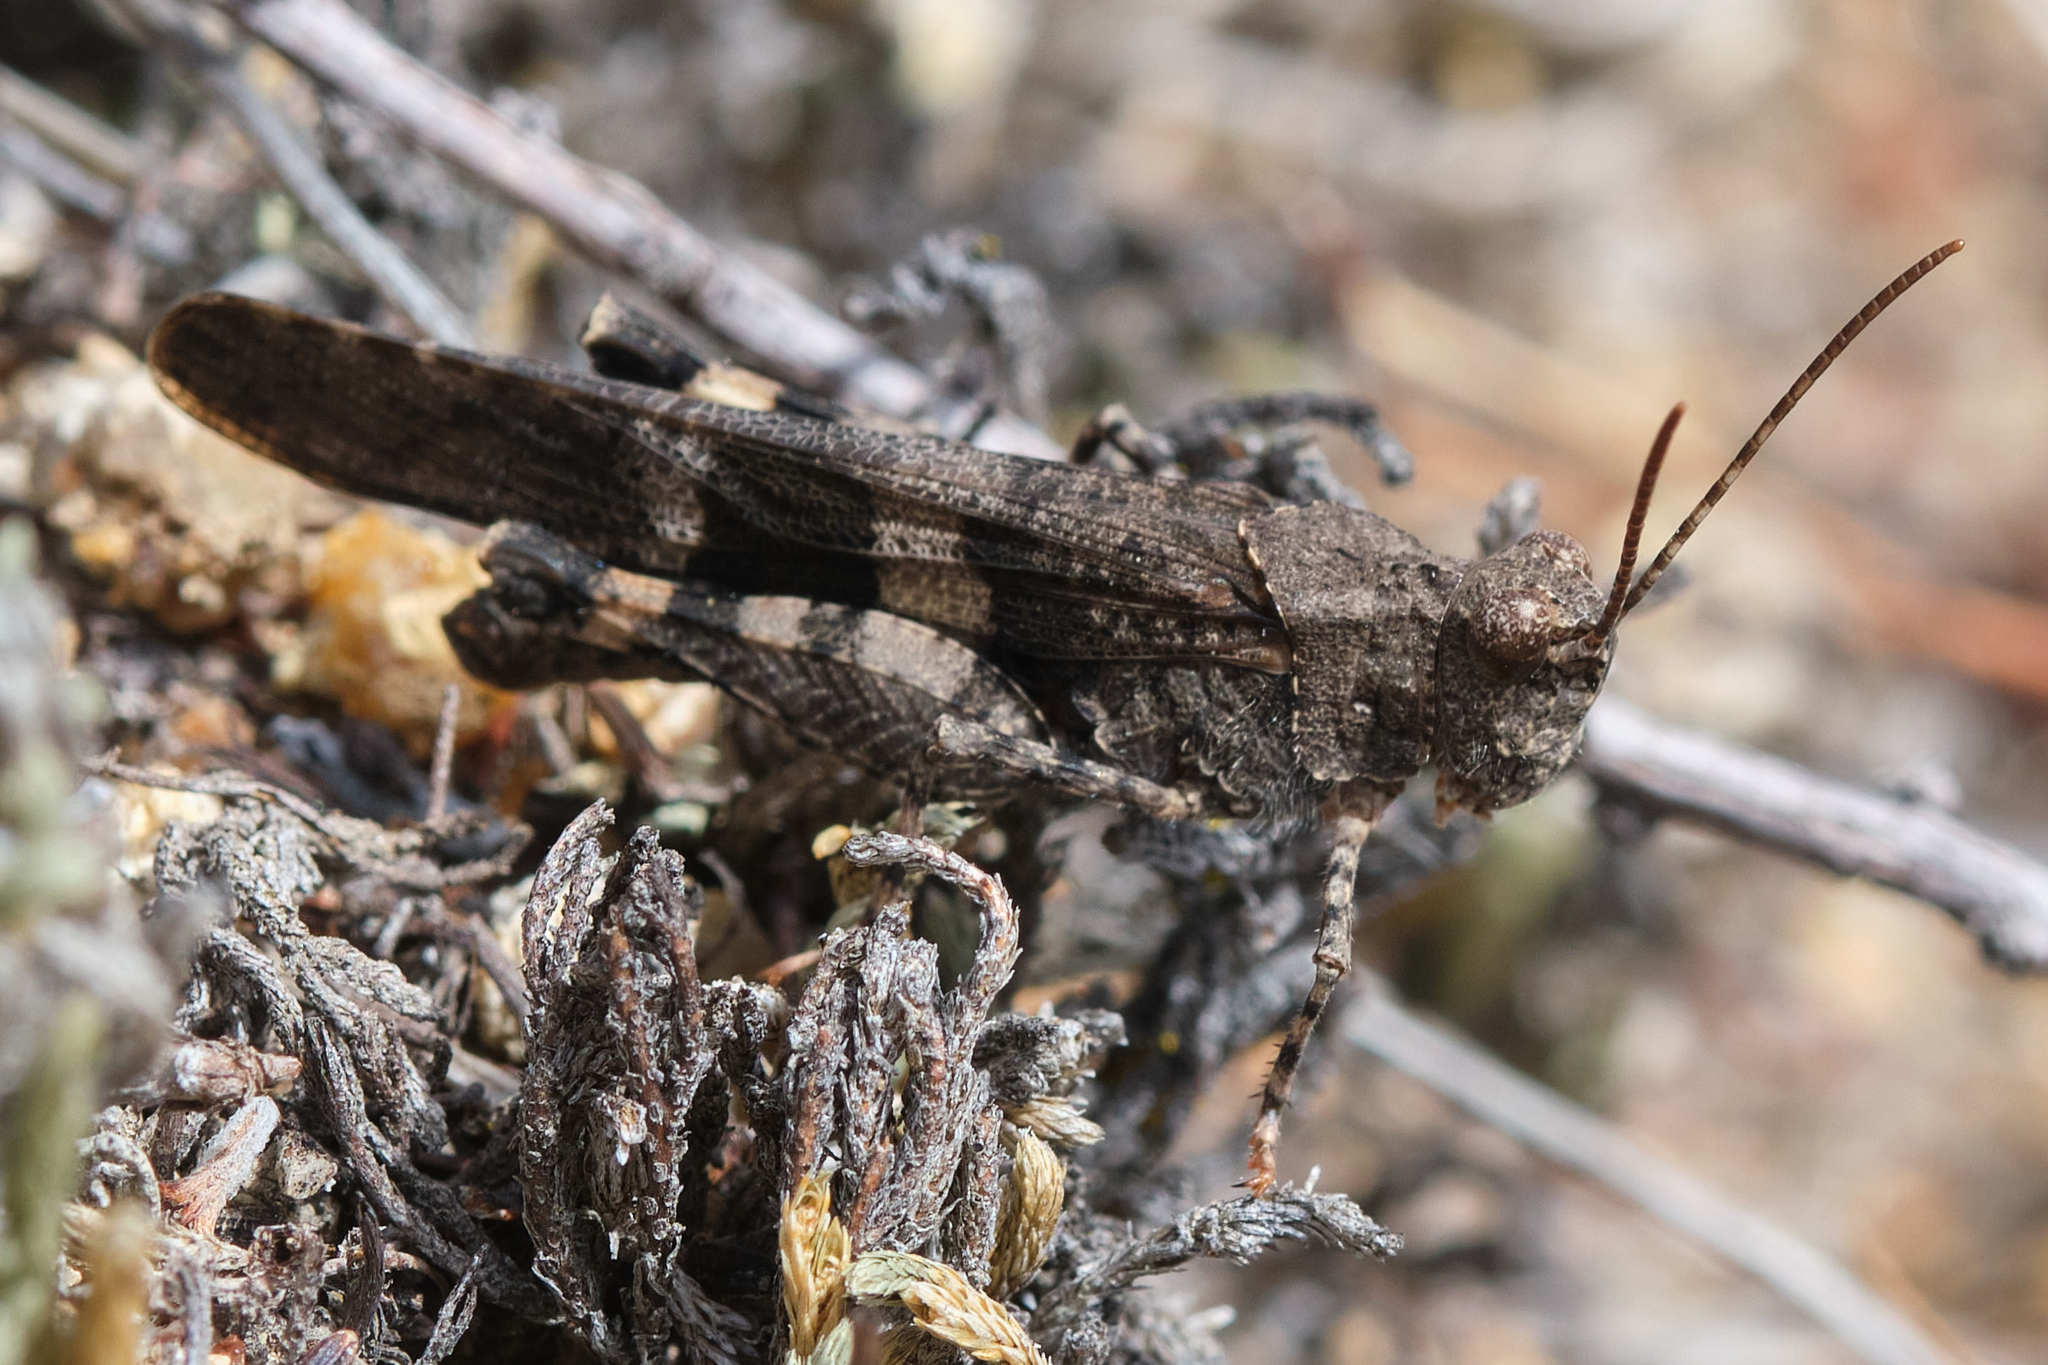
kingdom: Animalia
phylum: Arthropoda
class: Insecta
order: Orthoptera
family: Acrididae
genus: Trimerotropis
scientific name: Trimerotropis fontana
